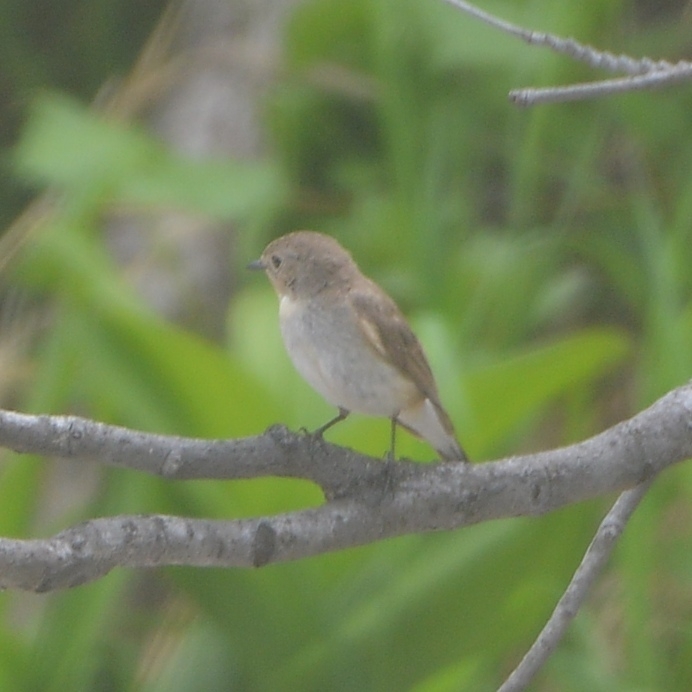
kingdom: Animalia
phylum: Chordata
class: Aves
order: Passeriformes
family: Muscicapidae
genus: Ficedula
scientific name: Ficedula albicilla
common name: Taiga flycatcher
